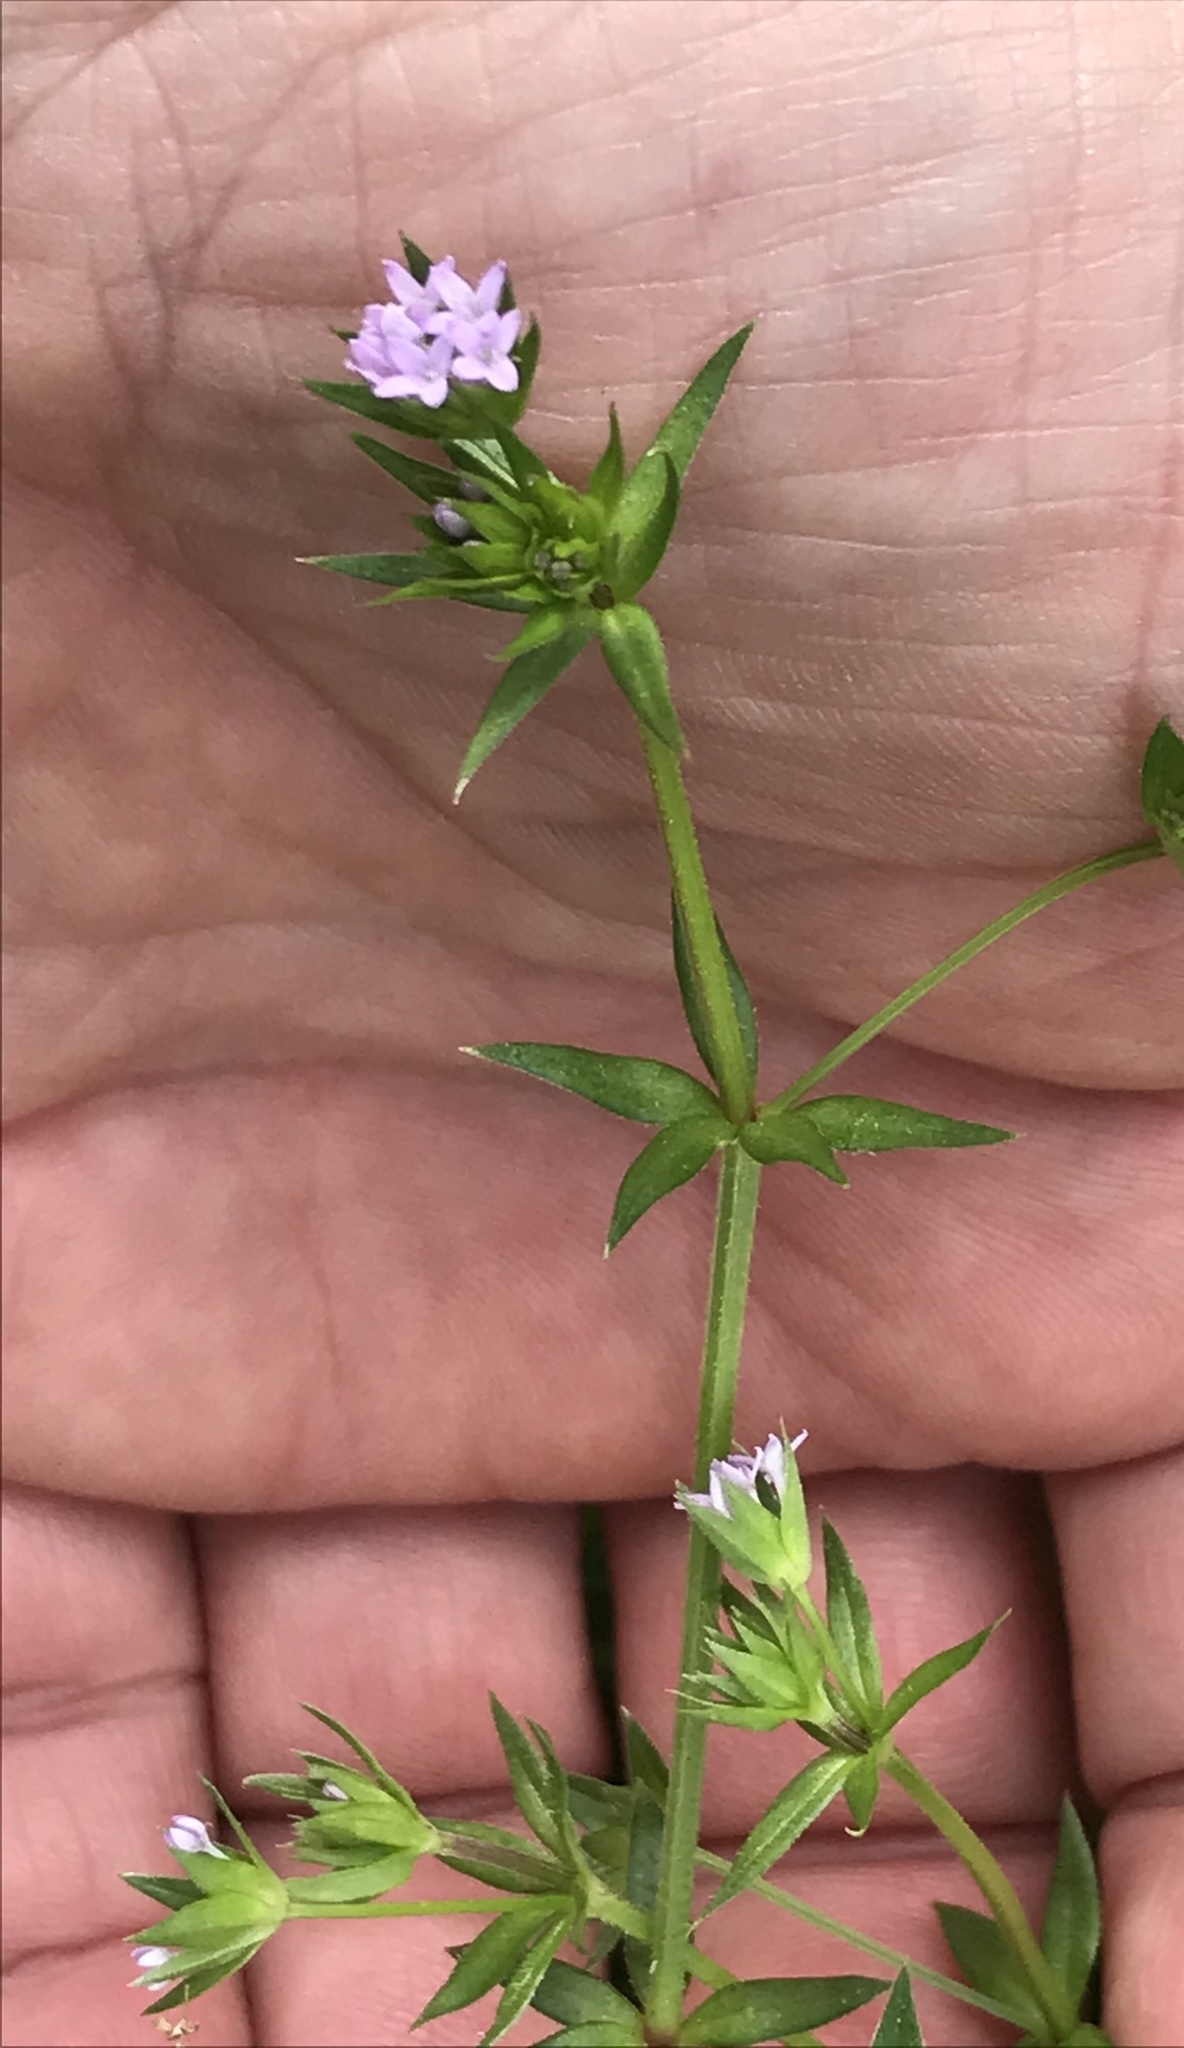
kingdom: Plantae
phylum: Tracheophyta
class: Magnoliopsida
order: Gentianales
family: Rubiaceae
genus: Sherardia
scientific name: Sherardia arvensis
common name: Field madder
